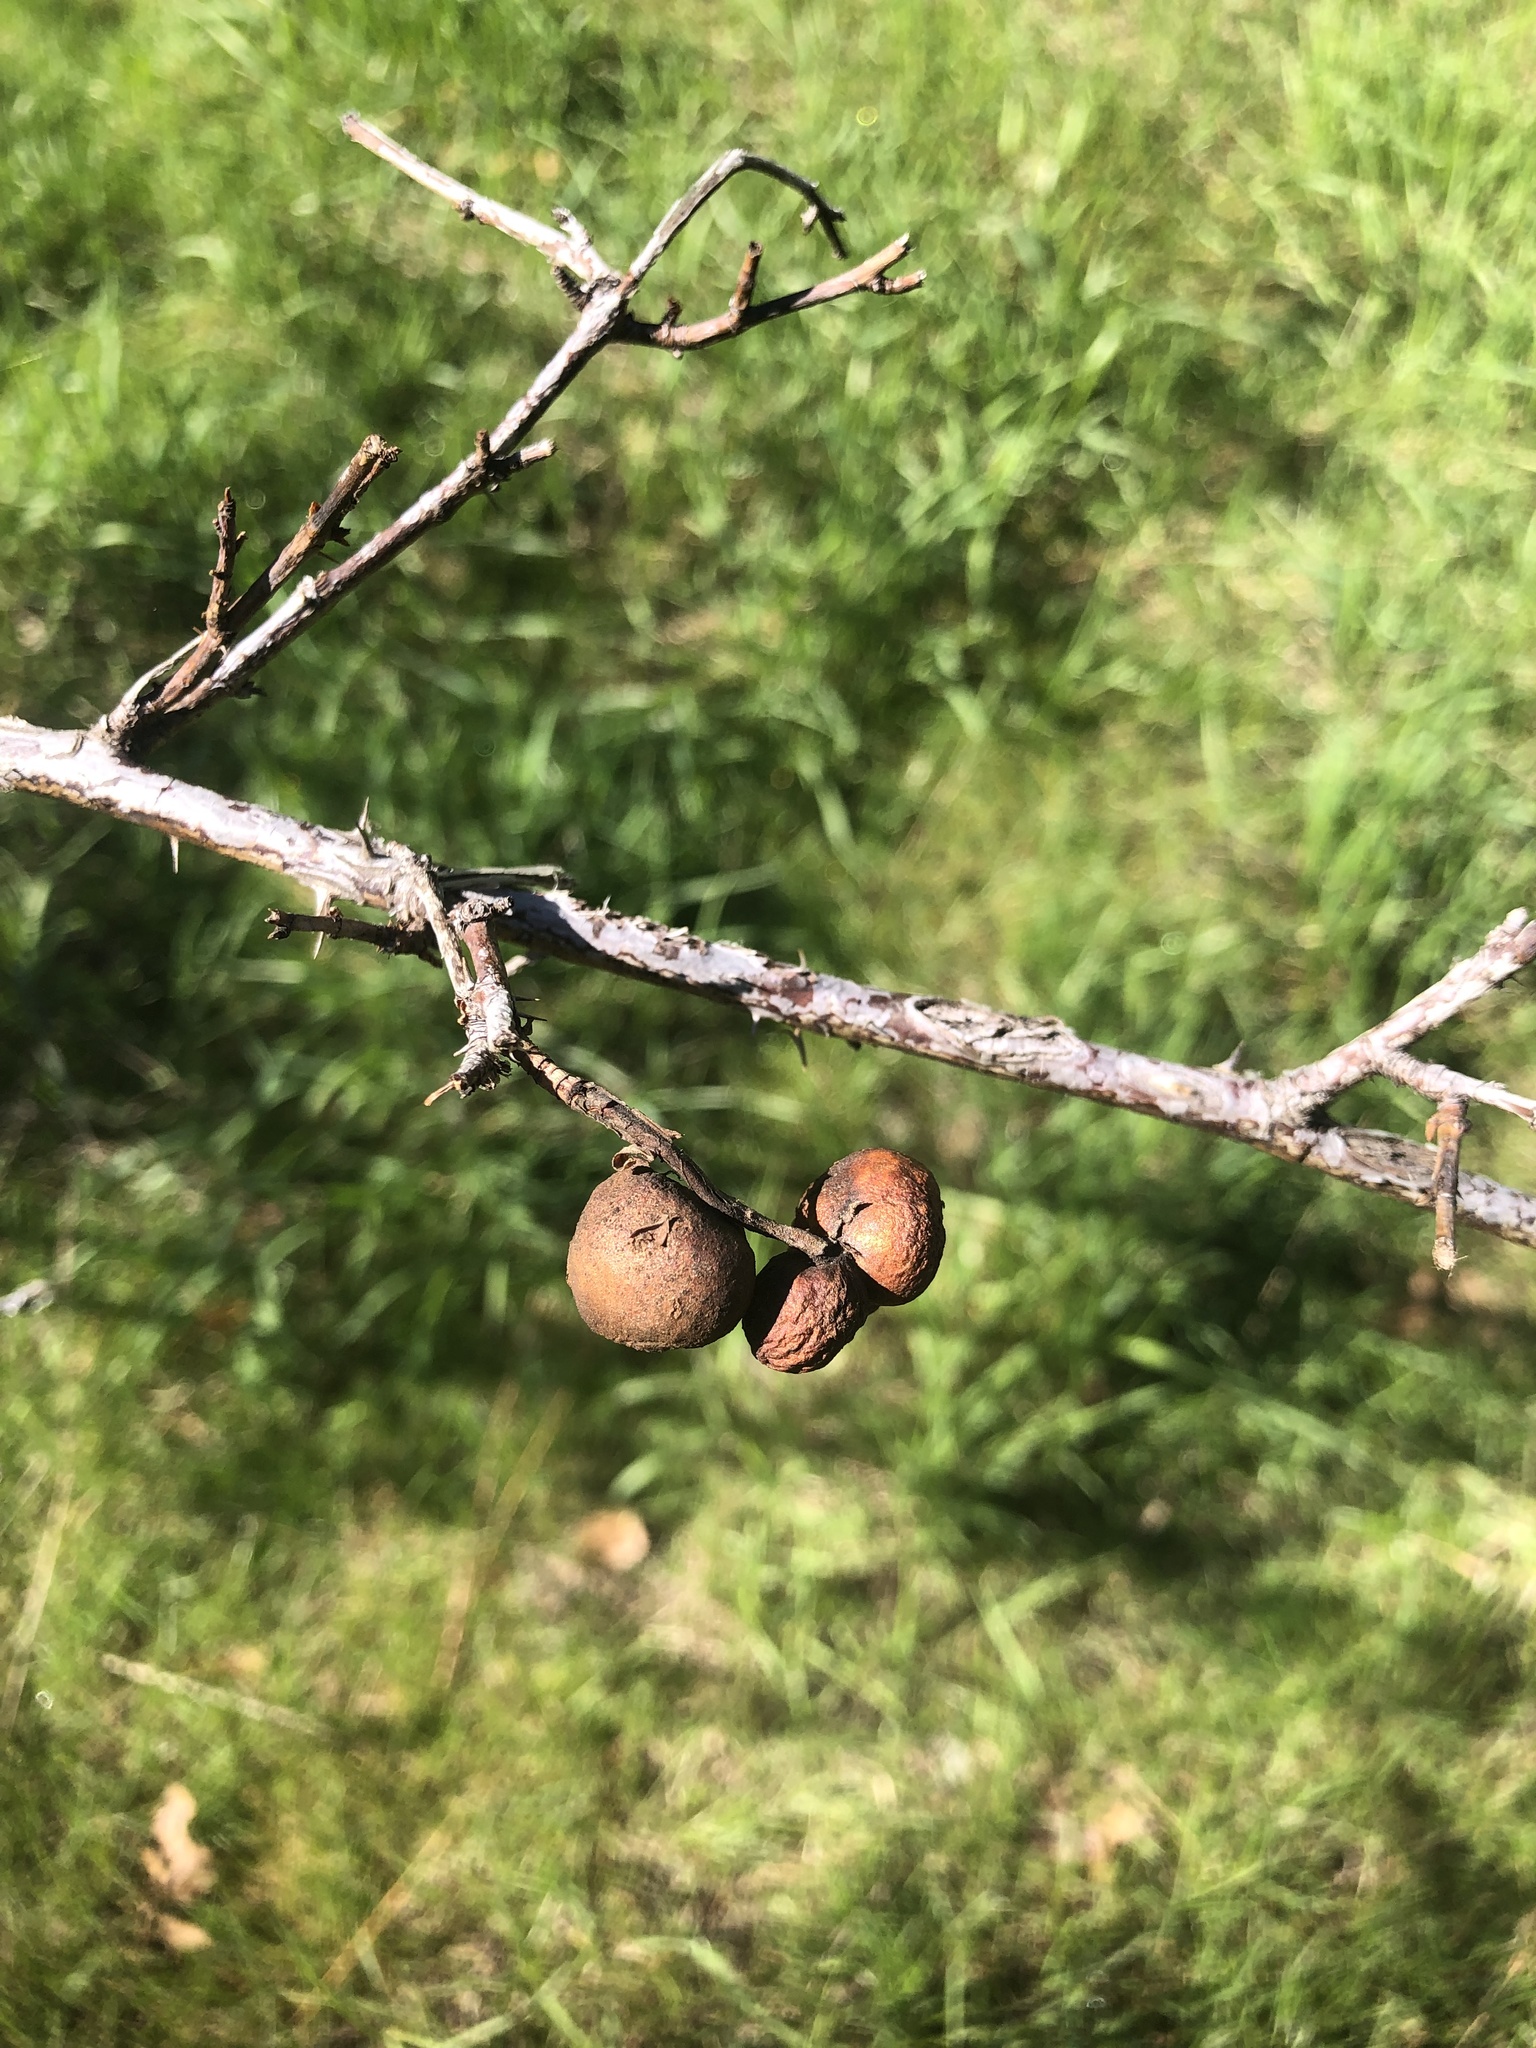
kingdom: Animalia
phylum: Arthropoda
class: Insecta
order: Hymenoptera
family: Cynipidae
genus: Diplolepis
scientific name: Diplolepis variabilis
